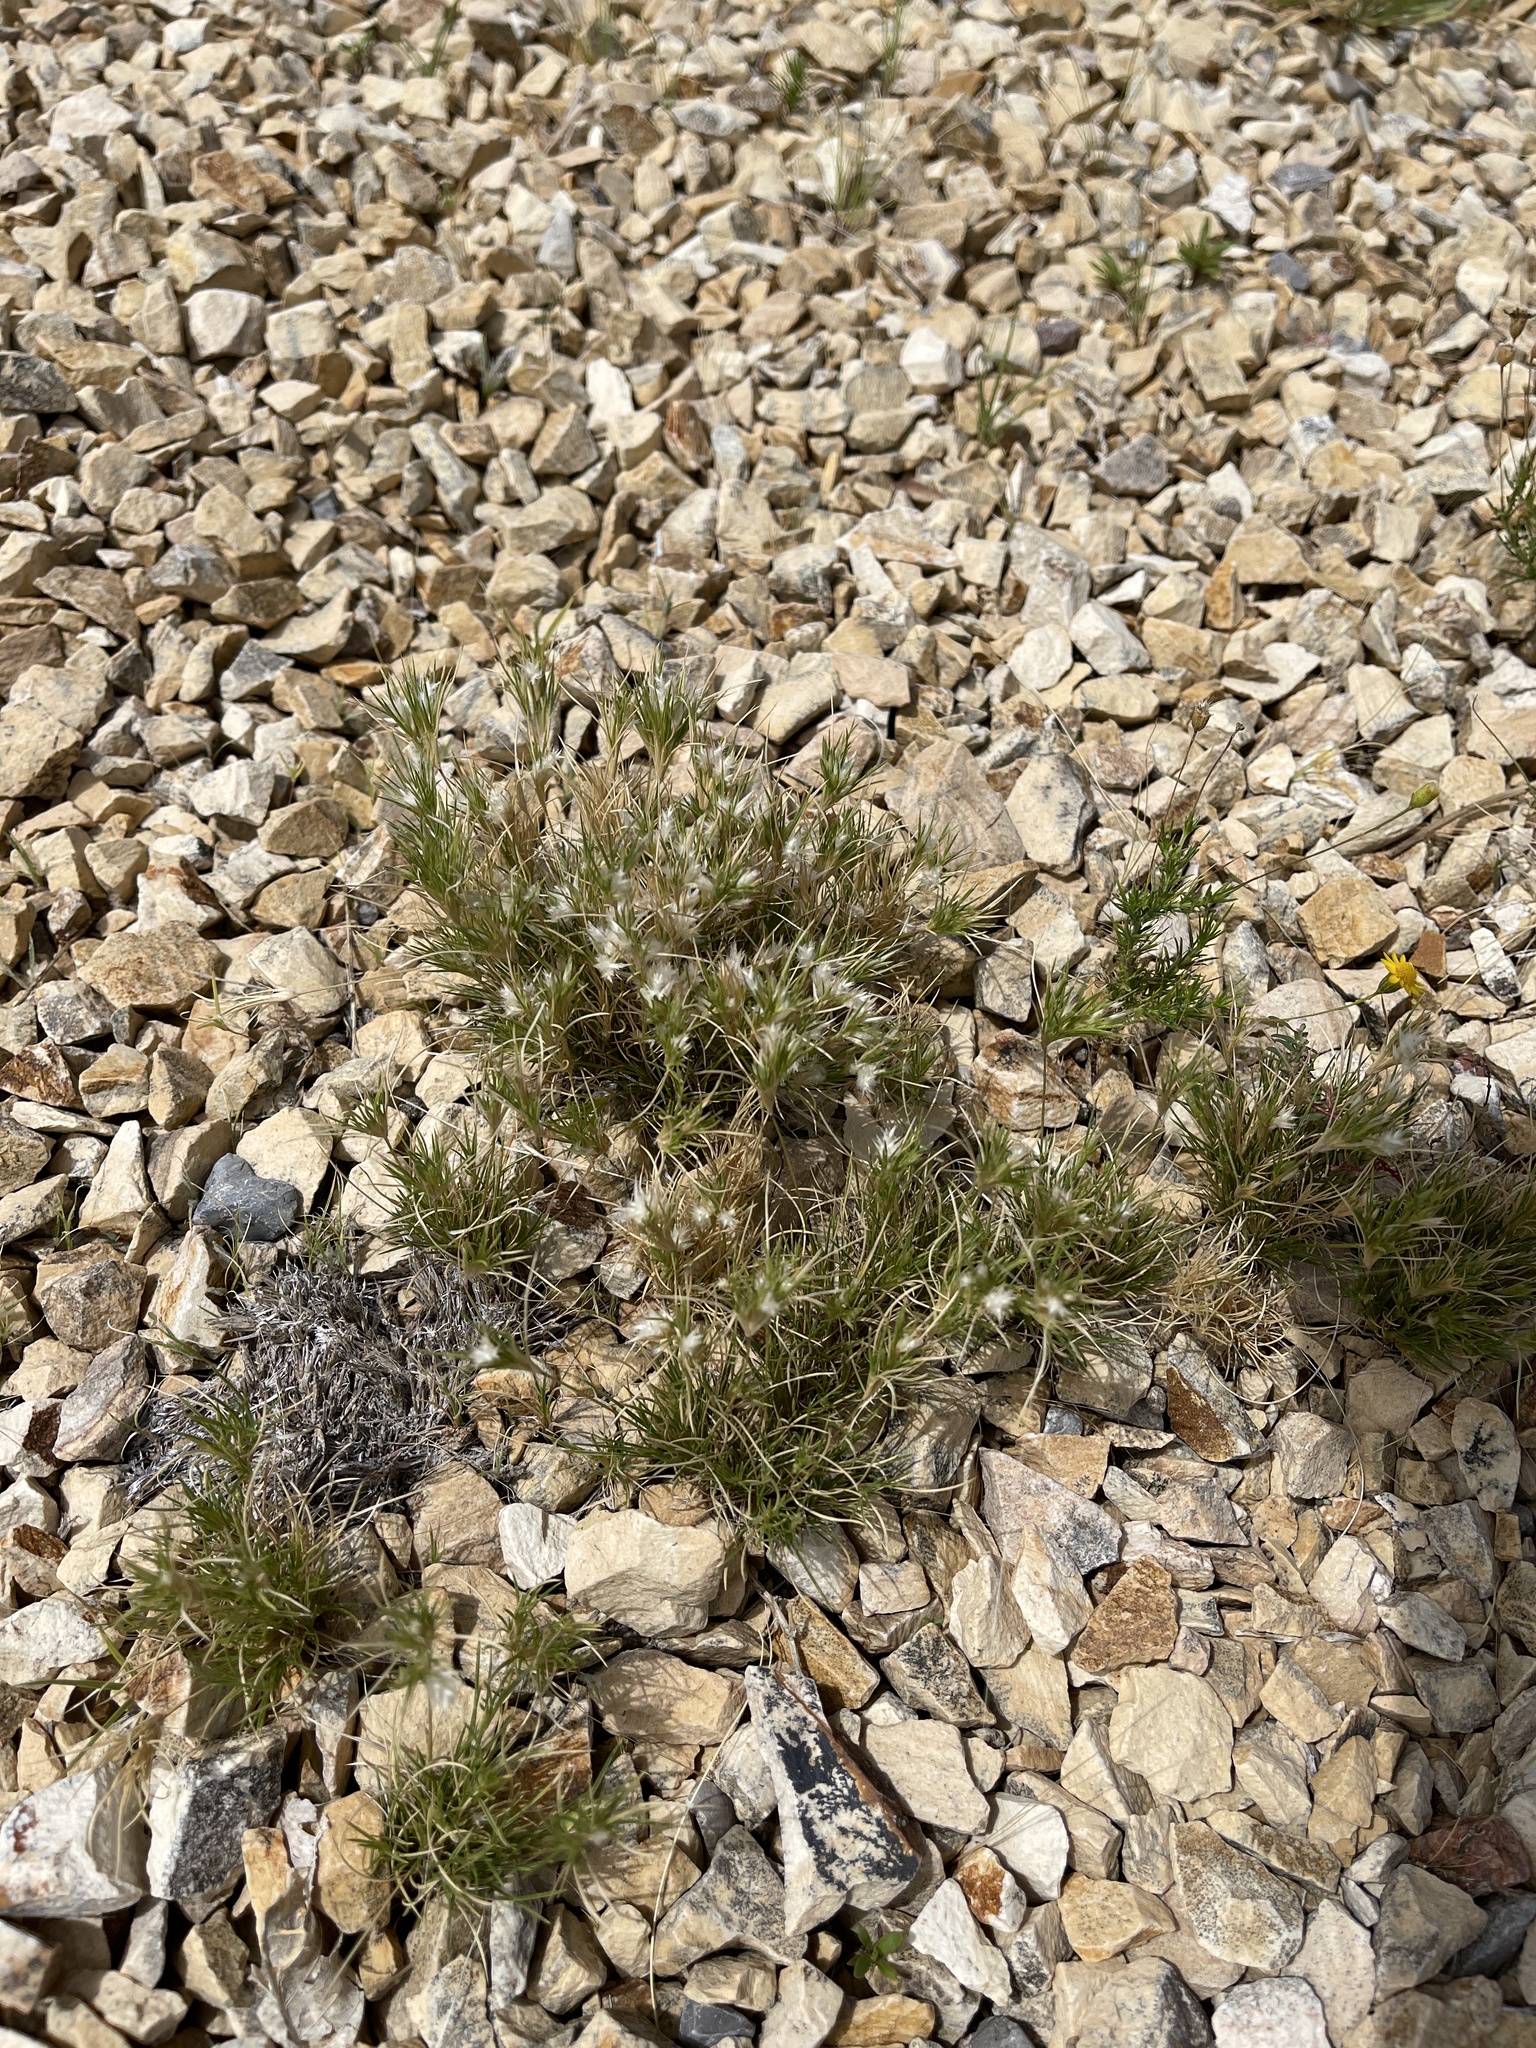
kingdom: Plantae
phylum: Tracheophyta
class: Liliopsida
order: Poales
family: Poaceae
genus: Dasyochloa
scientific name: Dasyochloa pulchella
